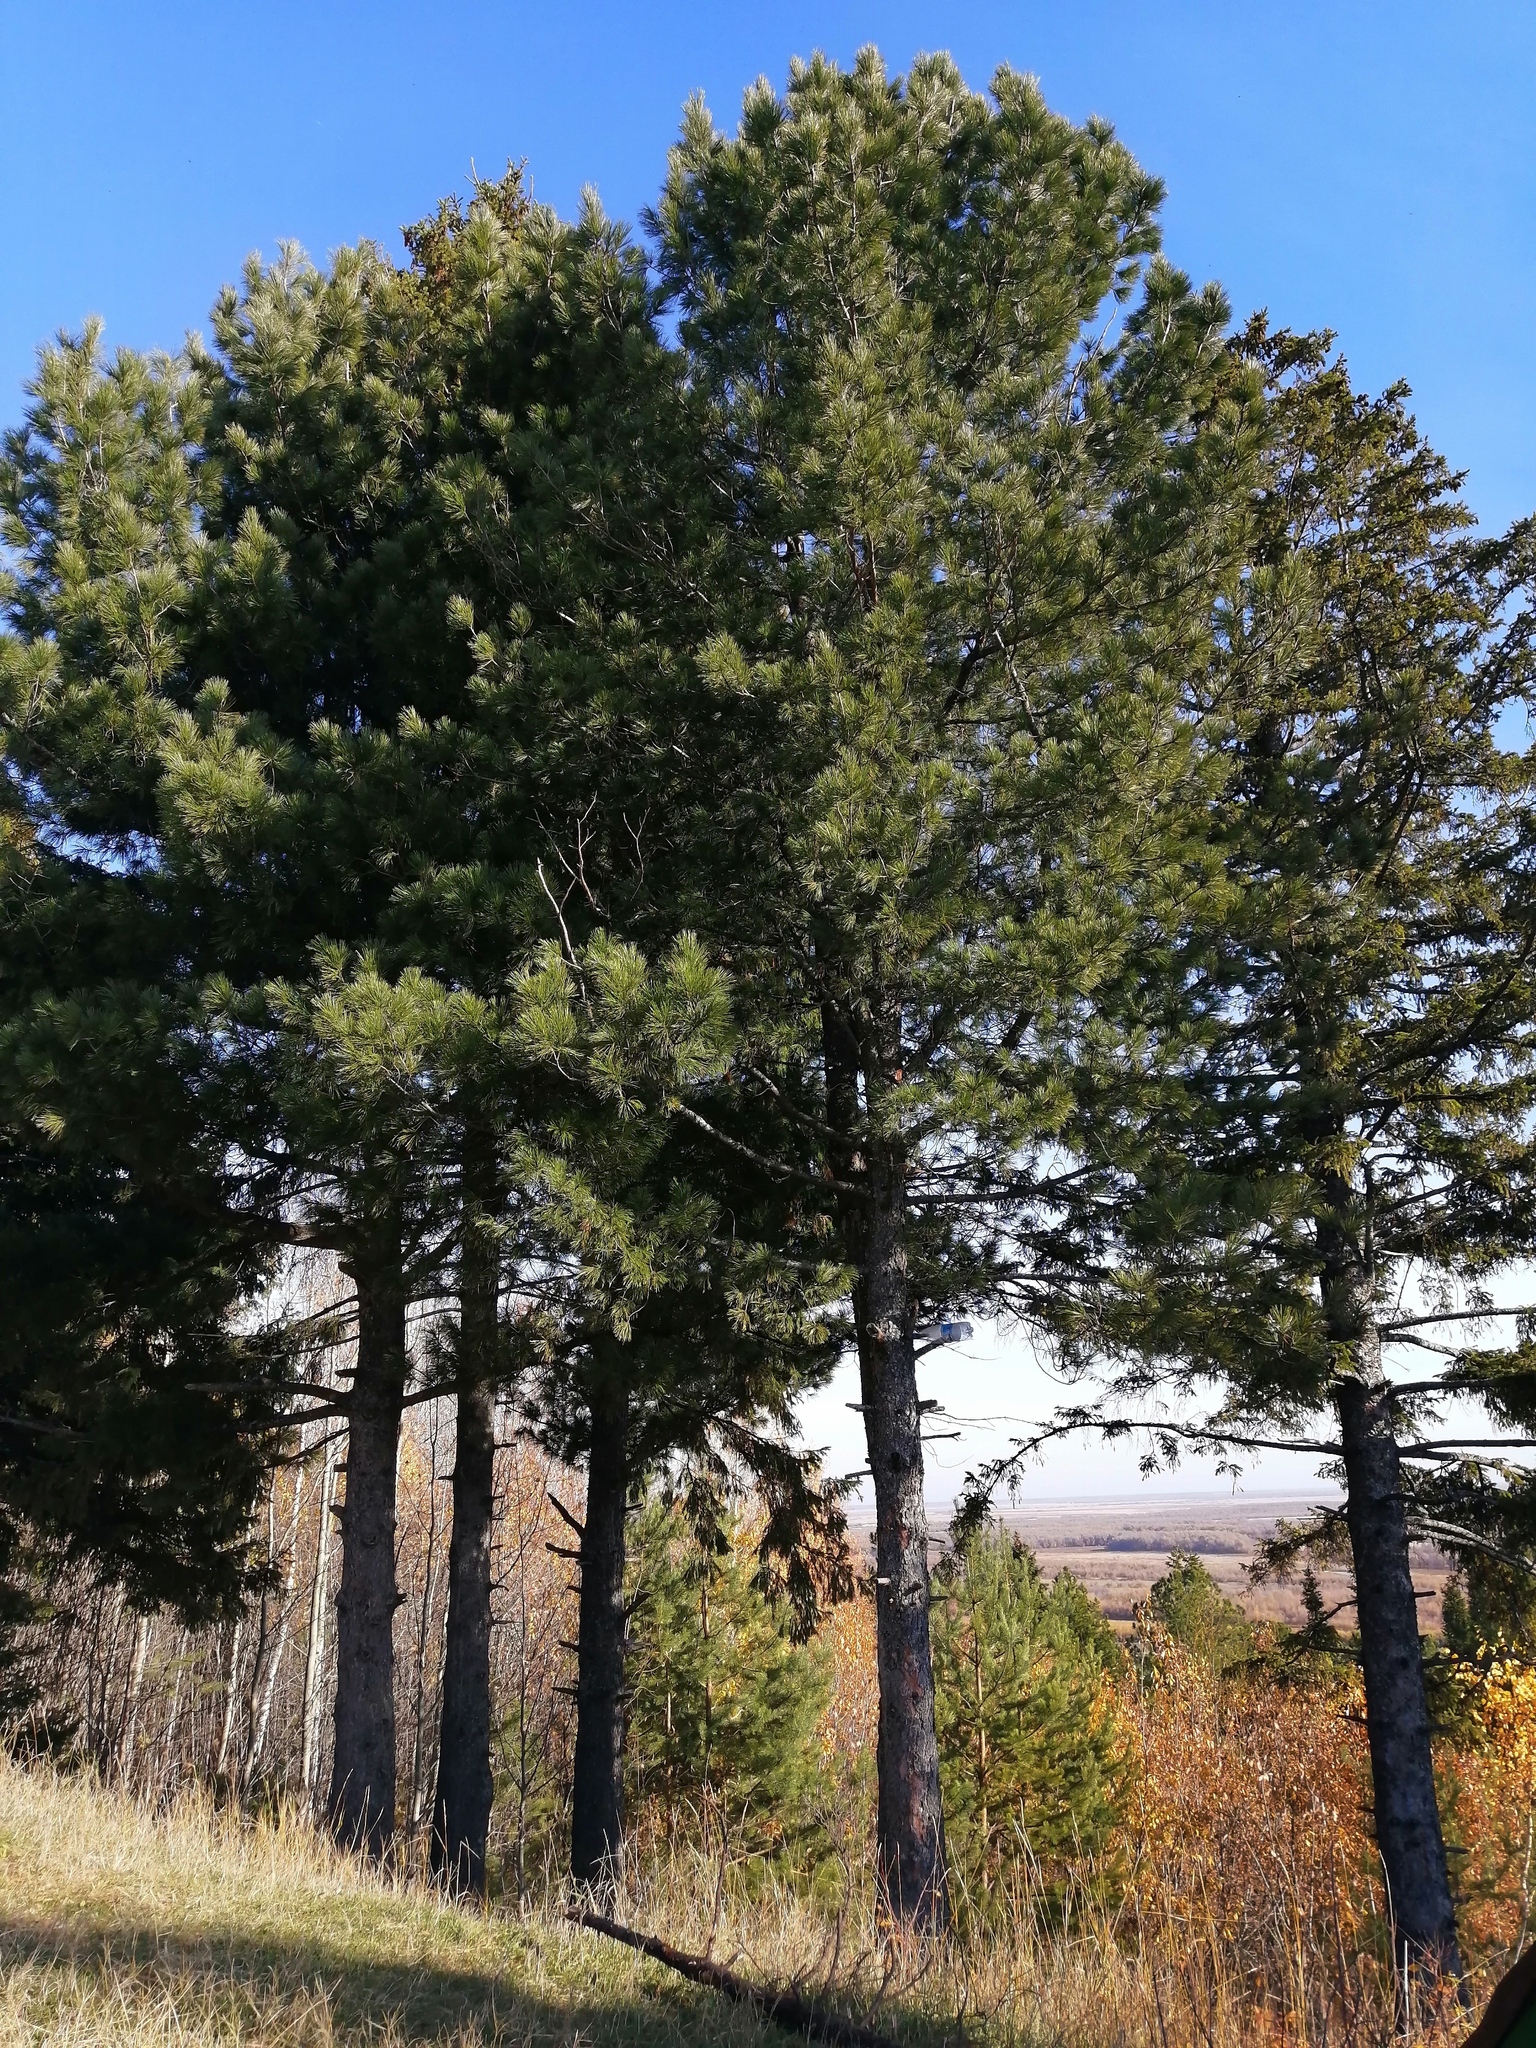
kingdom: Plantae
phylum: Tracheophyta
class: Pinopsida
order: Pinales
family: Pinaceae
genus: Pinus
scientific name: Pinus sibirica
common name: Siberian pine
